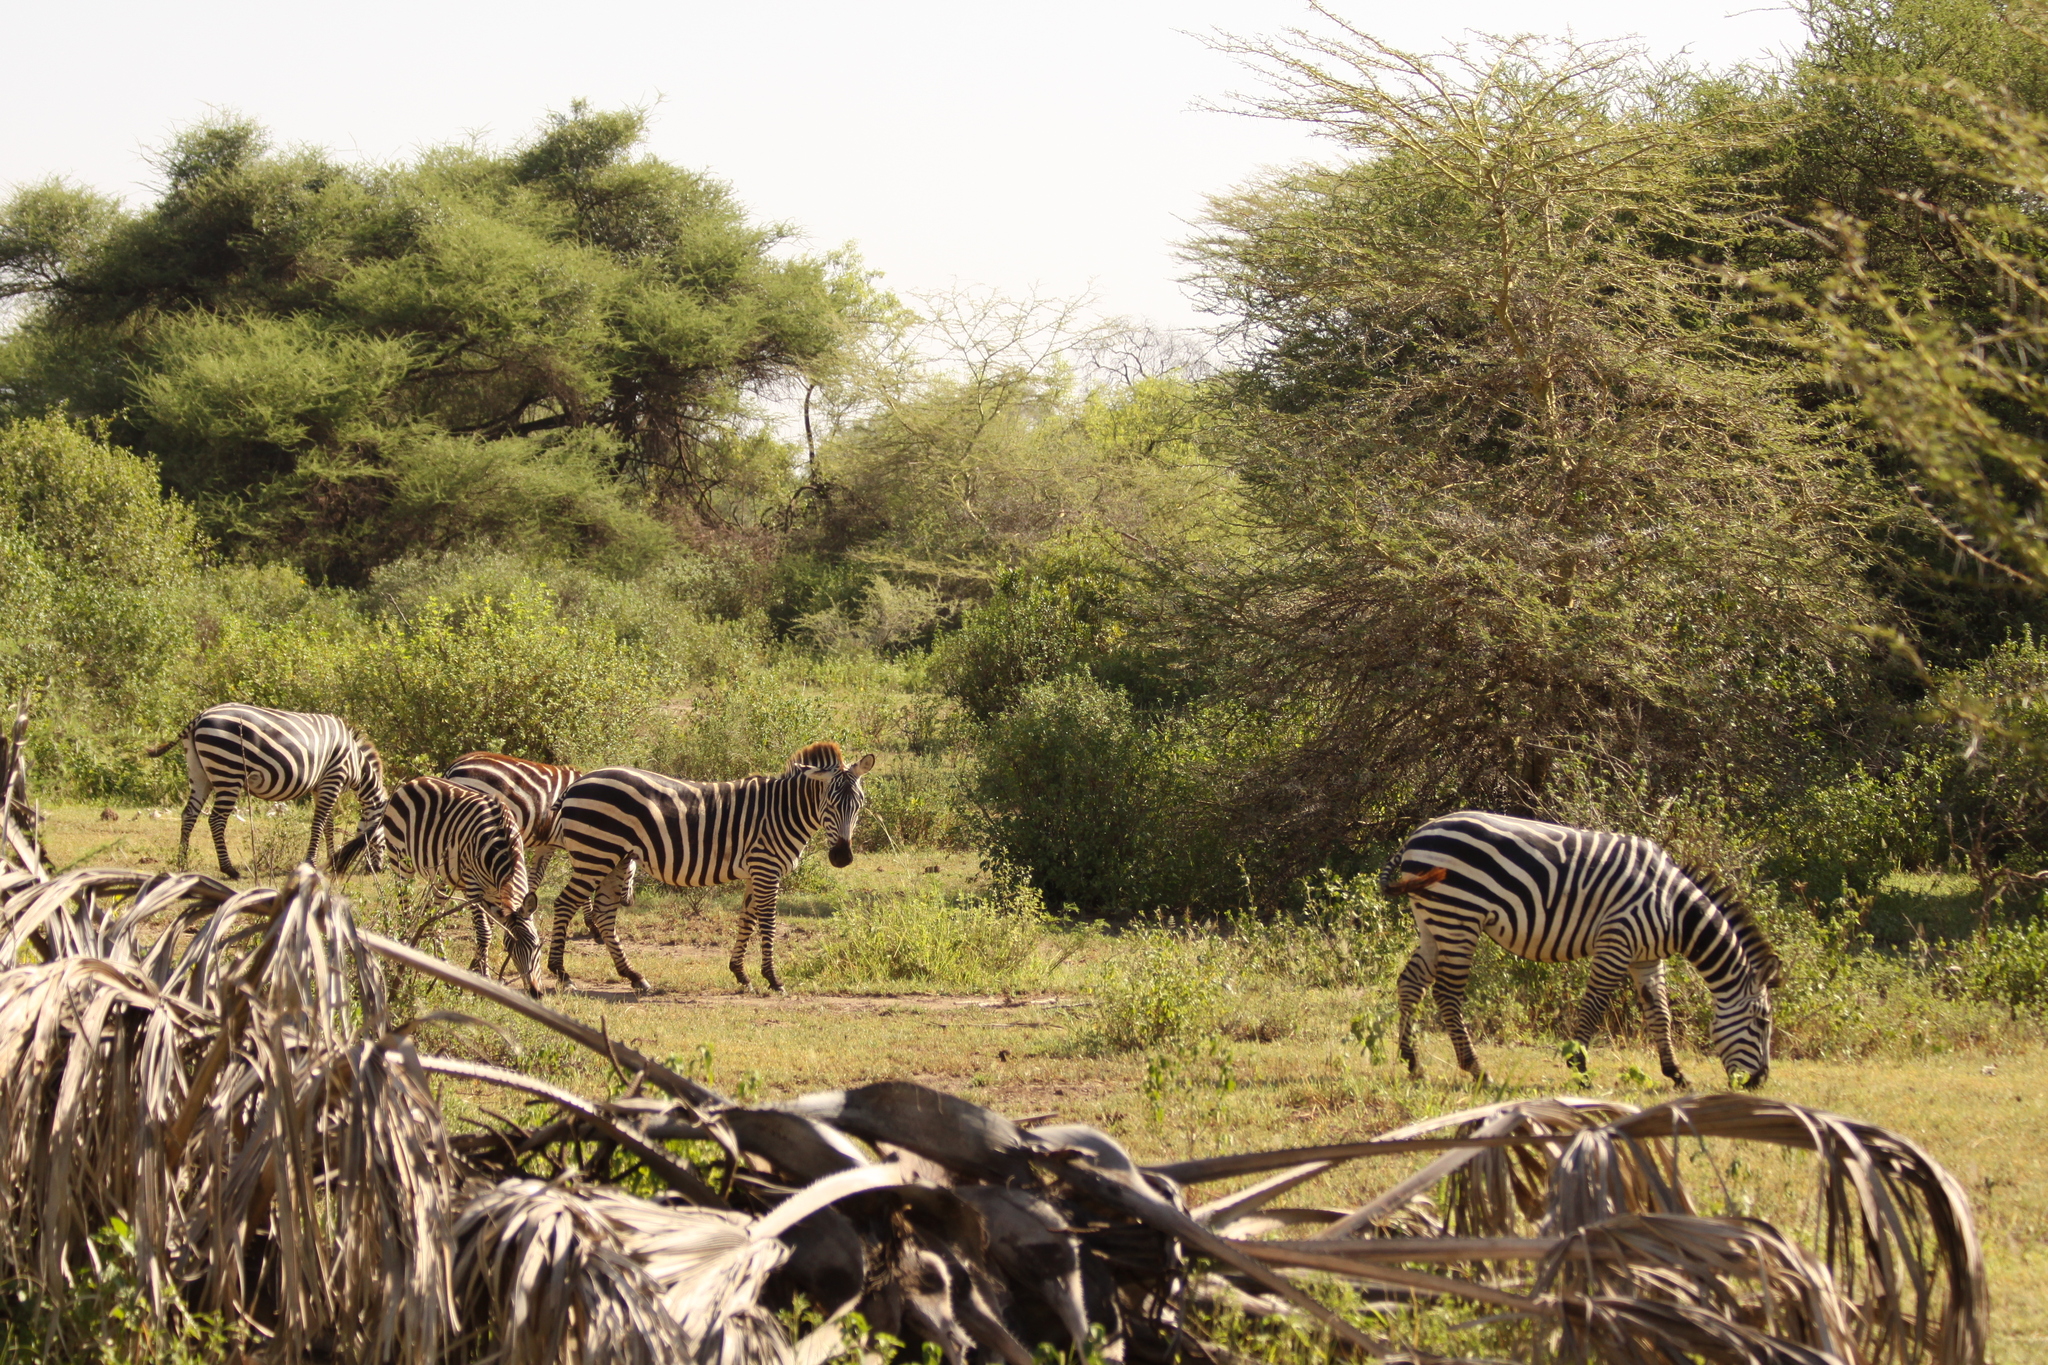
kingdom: Animalia
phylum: Chordata
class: Mammalia
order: Perissodactyla
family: Equidae
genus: Equus
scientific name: Equus quagga
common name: Plains zebra
